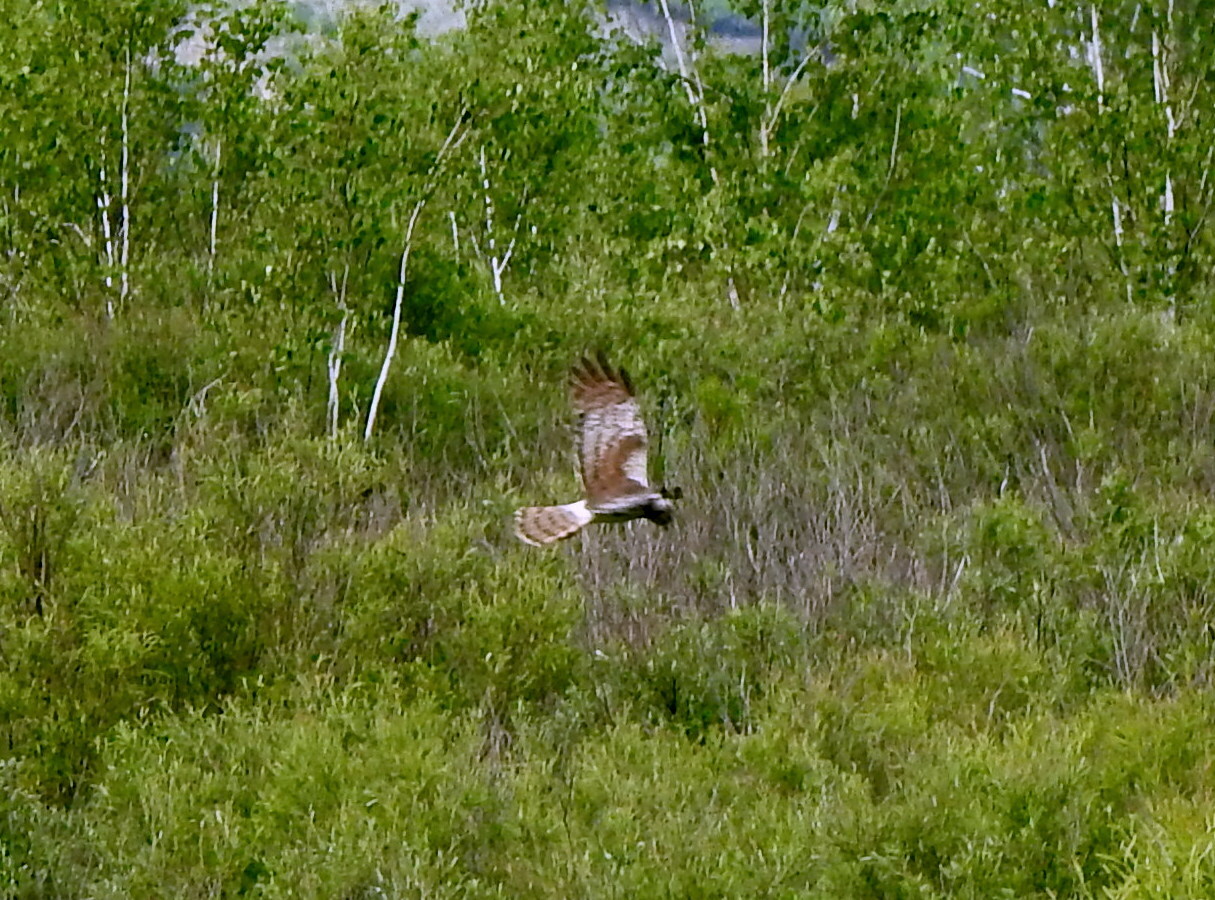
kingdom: Animalia
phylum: Chordata
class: Aves
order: Accipitriformes
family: Accipitridae
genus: Circus
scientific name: Circus melanoleucos
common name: Pied harrier
